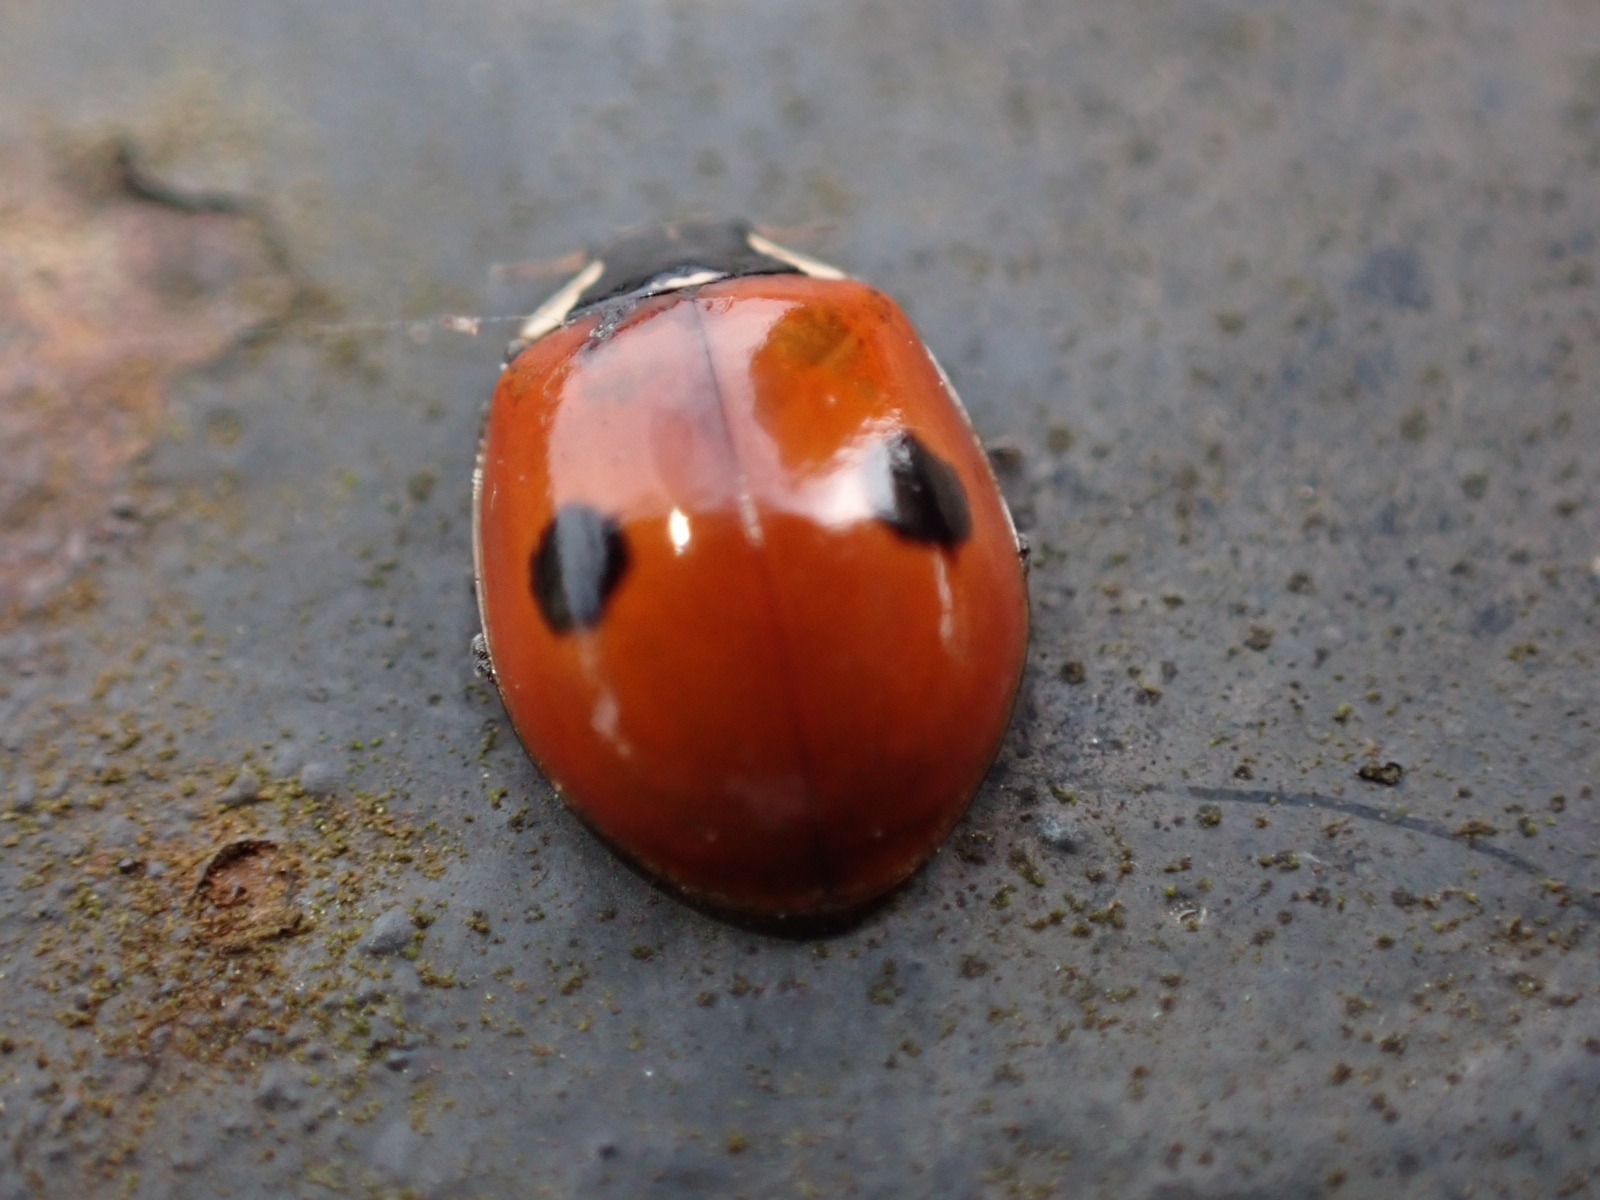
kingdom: Animalia
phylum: Arthropoda
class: Insecta
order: Coleoptera
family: Coccinellidae
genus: Adalia
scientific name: Adalia bipunctata
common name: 2-spot ladybird
